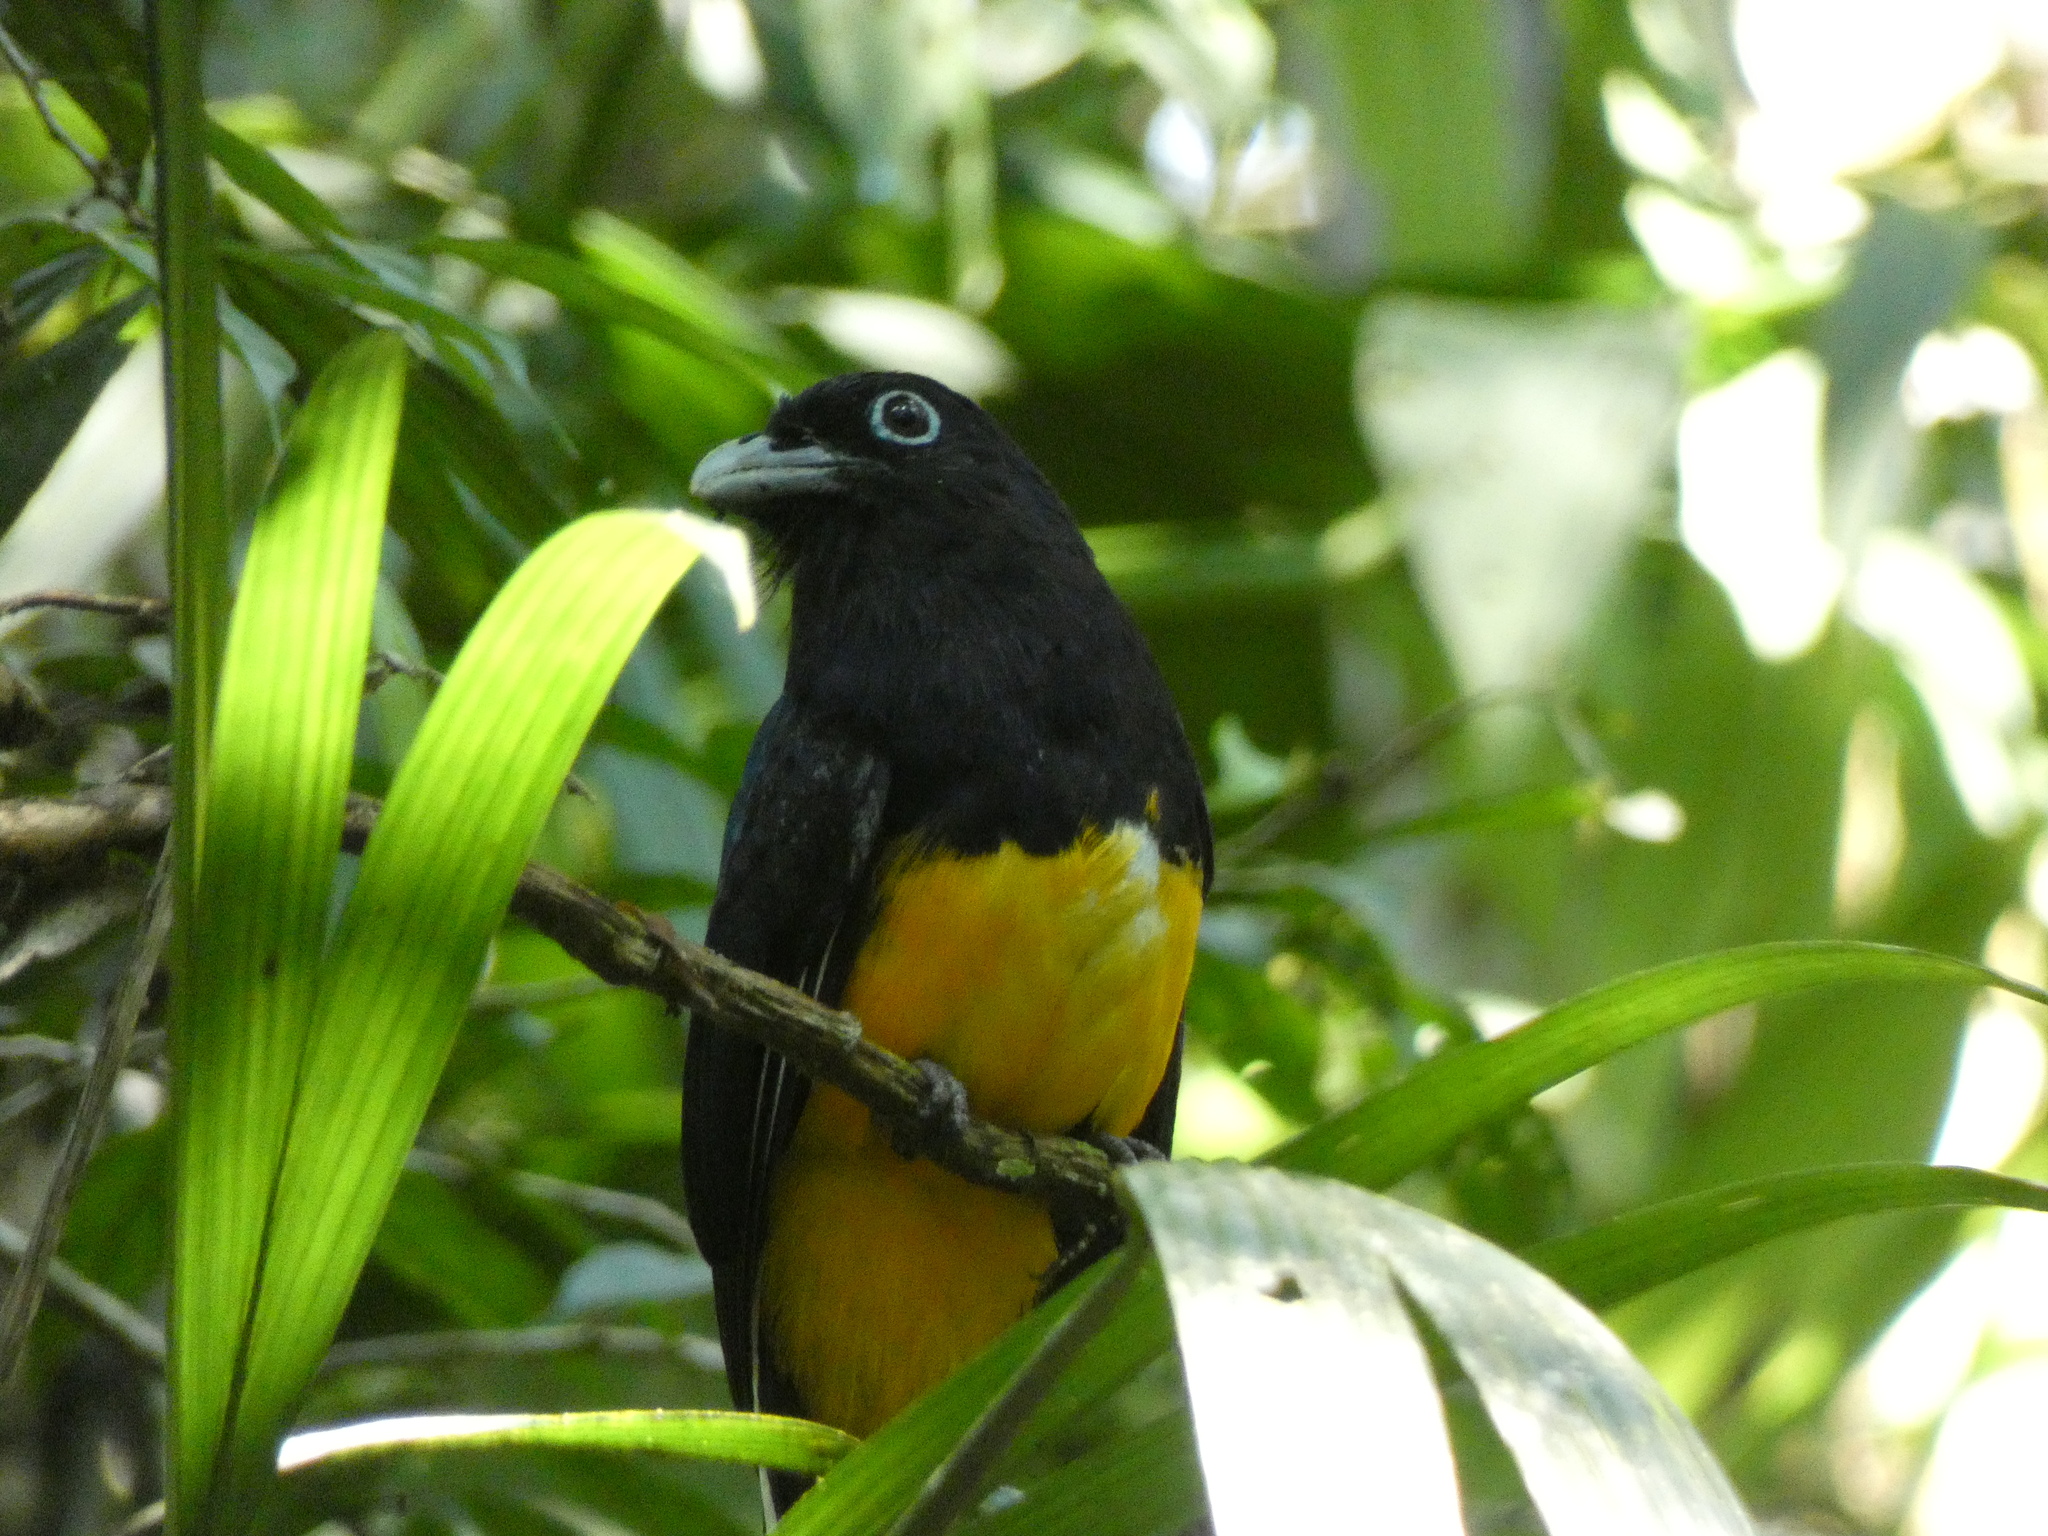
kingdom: Animalia
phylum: Chordata
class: Aves
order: Trogoniformes
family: Trogonidae
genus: Trogon
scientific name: Trogon viridis
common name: Green-backed trogon
